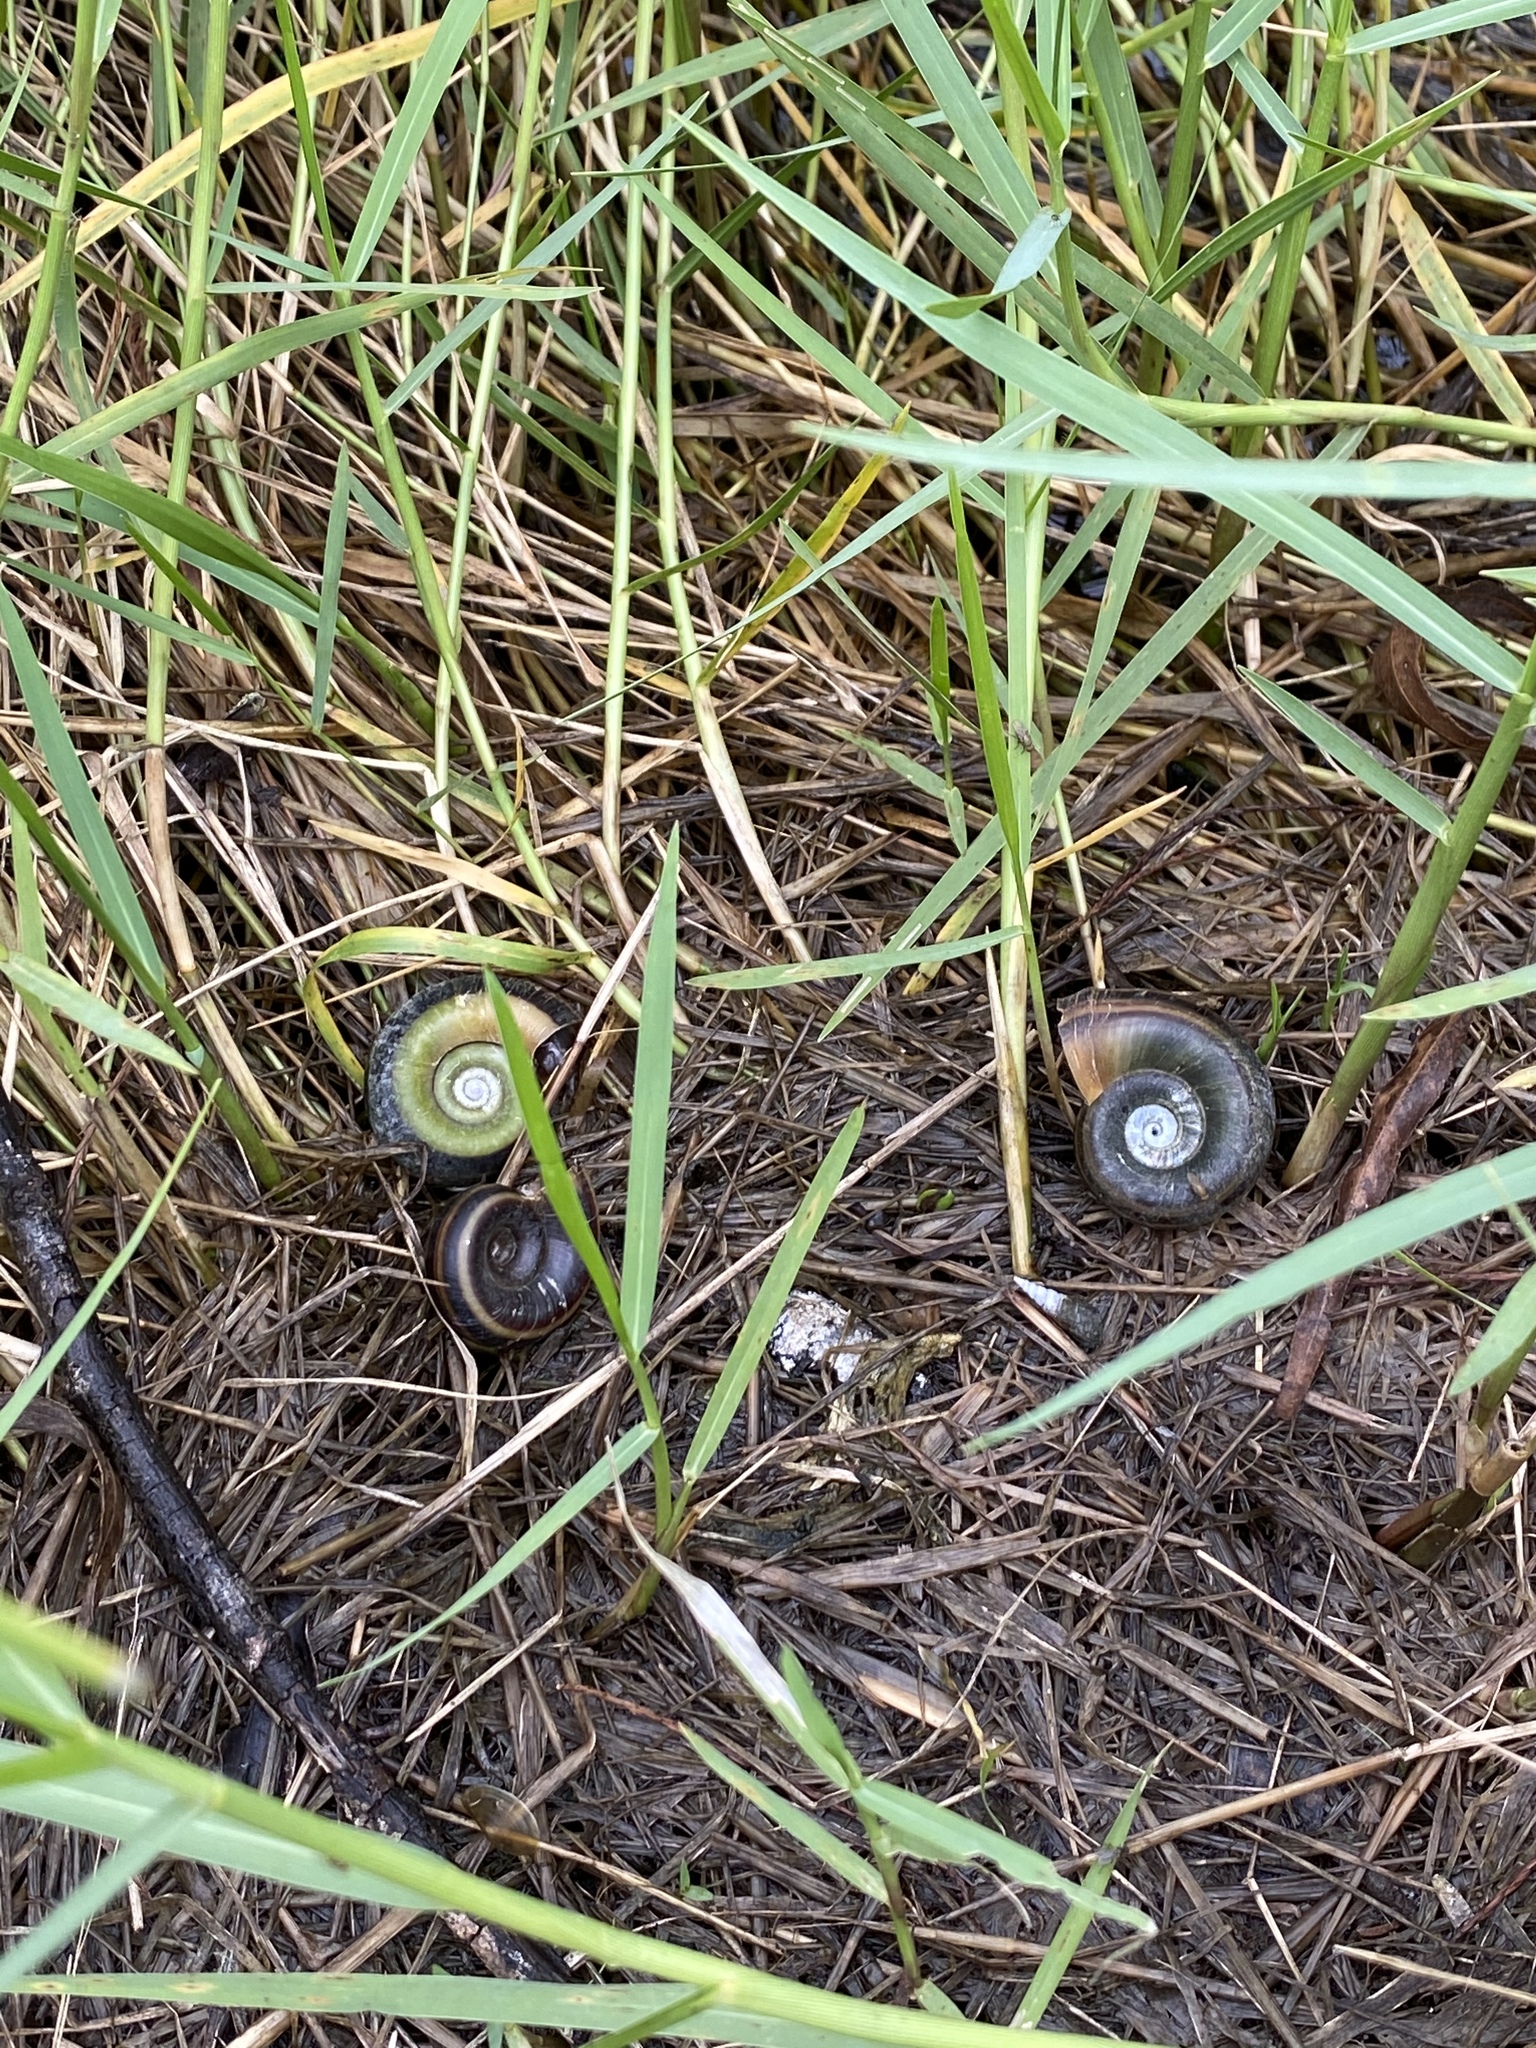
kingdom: Animalia
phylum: Mollusca
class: Gastropoda
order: Architaenioglossa
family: Ampullariidae
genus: Marisa
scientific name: Marisa cornuarietis
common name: Giant ramshorn snail
